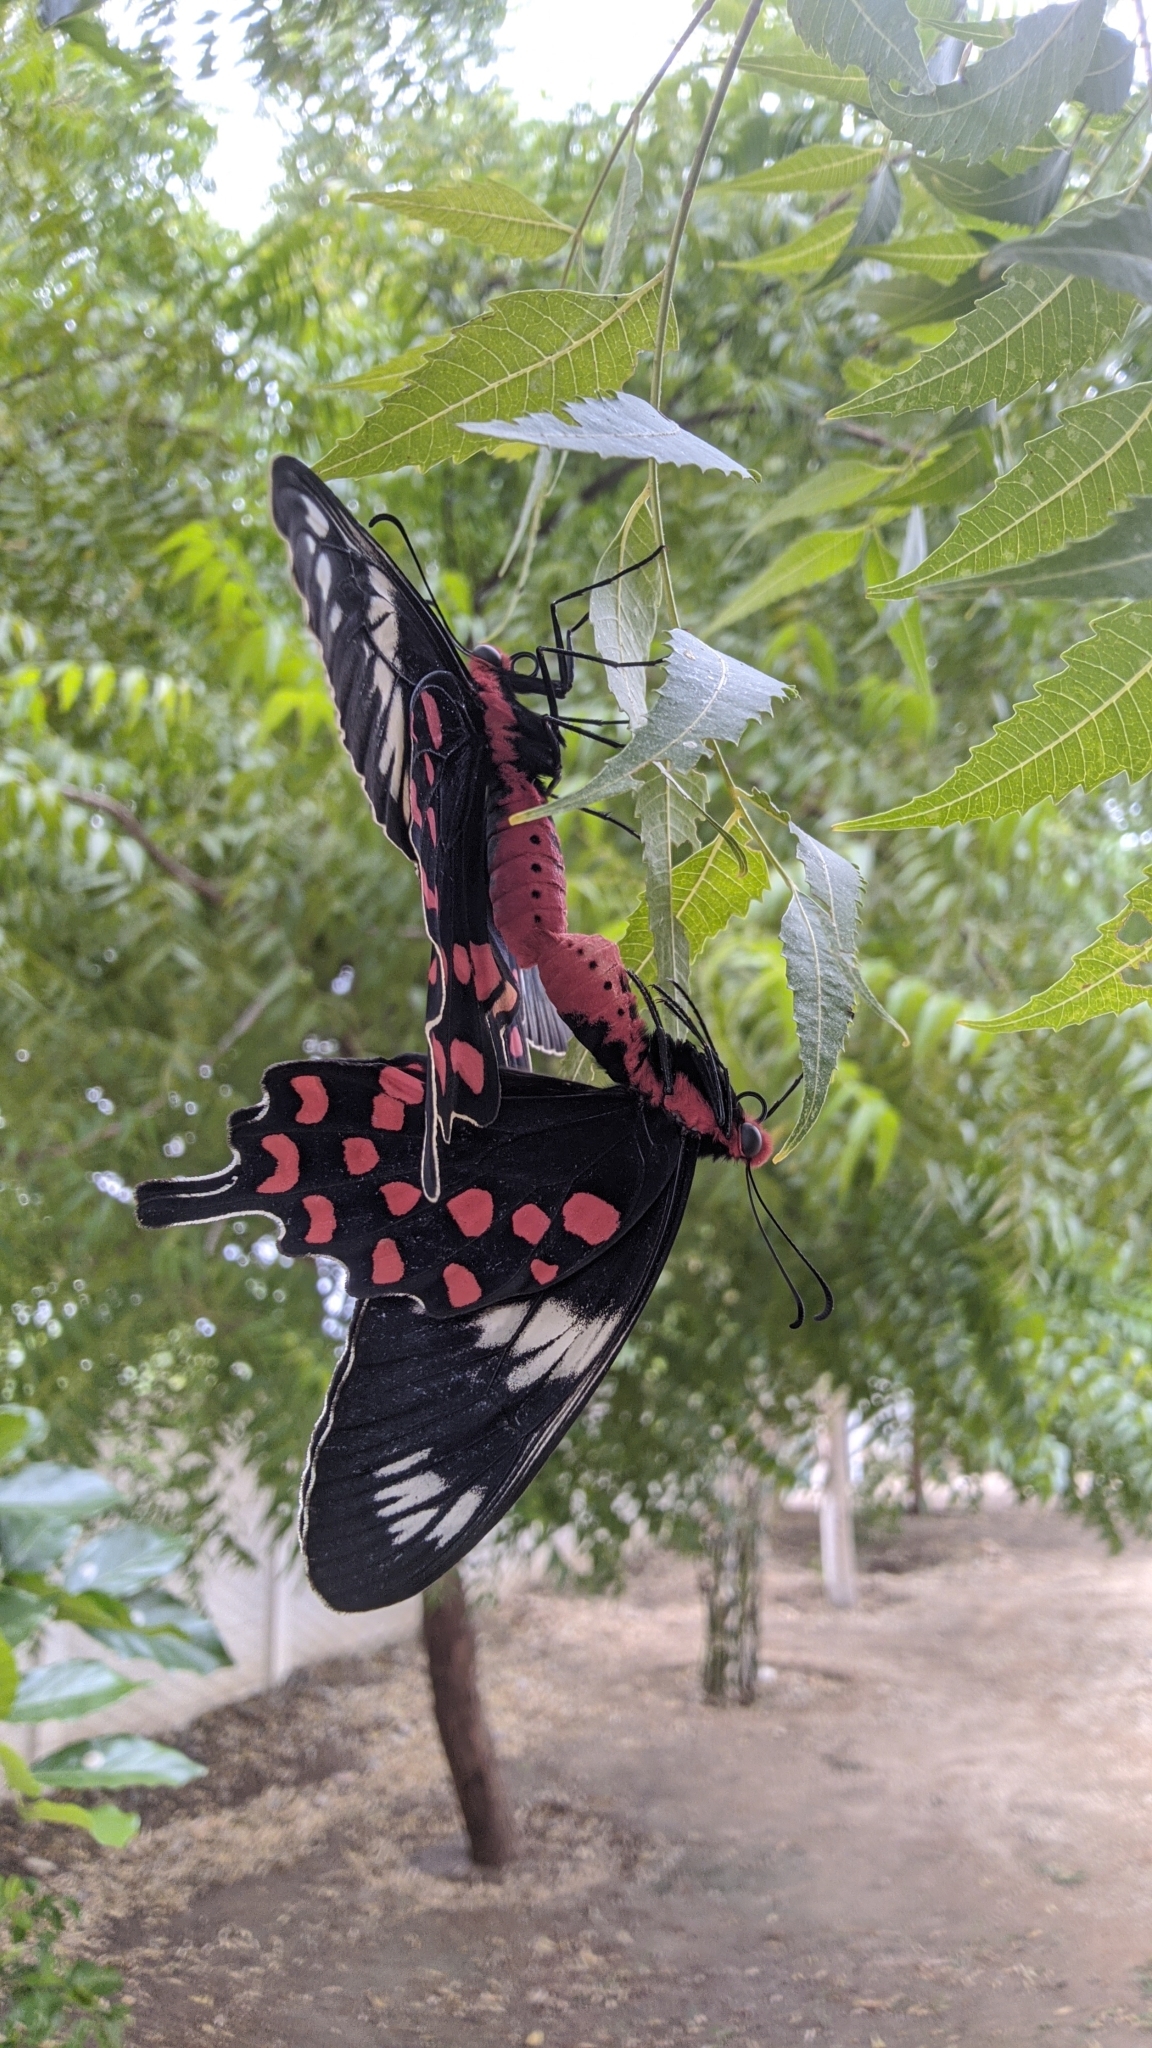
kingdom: Animalia
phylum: Arthropoda
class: Insecta
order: Lepidoptera
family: Papilionidae
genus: Pachliopta
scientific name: Pachliopta hector
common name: Crimson rose
